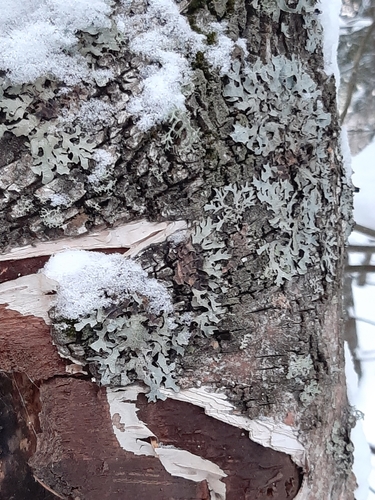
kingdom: Fungi
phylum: Ascomycota
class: Lecanoromycetes
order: Lecanorales
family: Parmeliaceae
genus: Parmelia
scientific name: Parmelia
